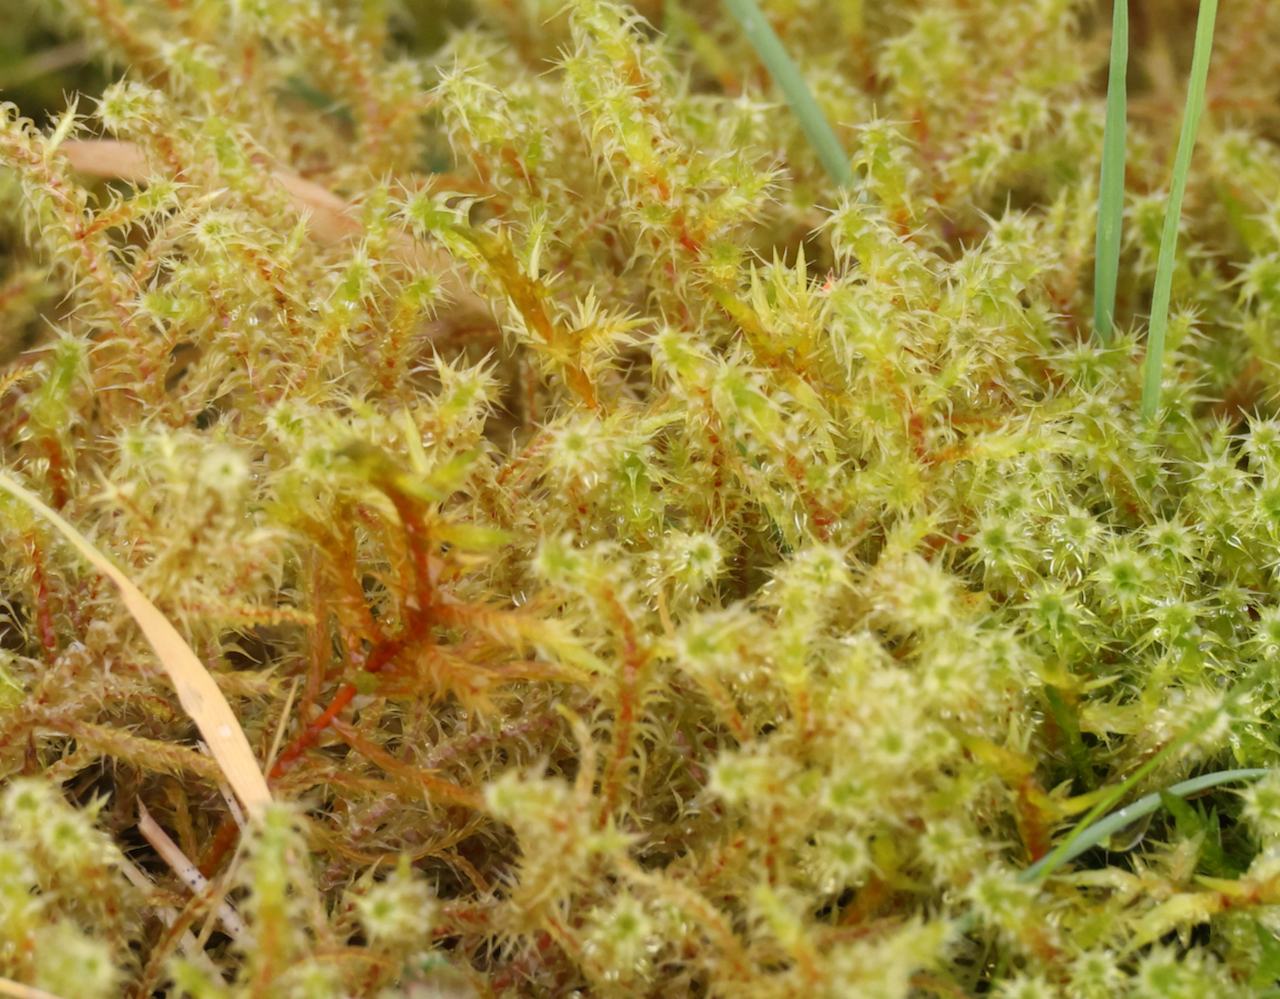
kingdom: Plantae
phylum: Bryophyta
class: Bryopsida
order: Hypnales
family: Hylocomiaceae
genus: Rhytidiadelphus
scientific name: Rhytidiadelphus squarrosus
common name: Springy turf-moss
